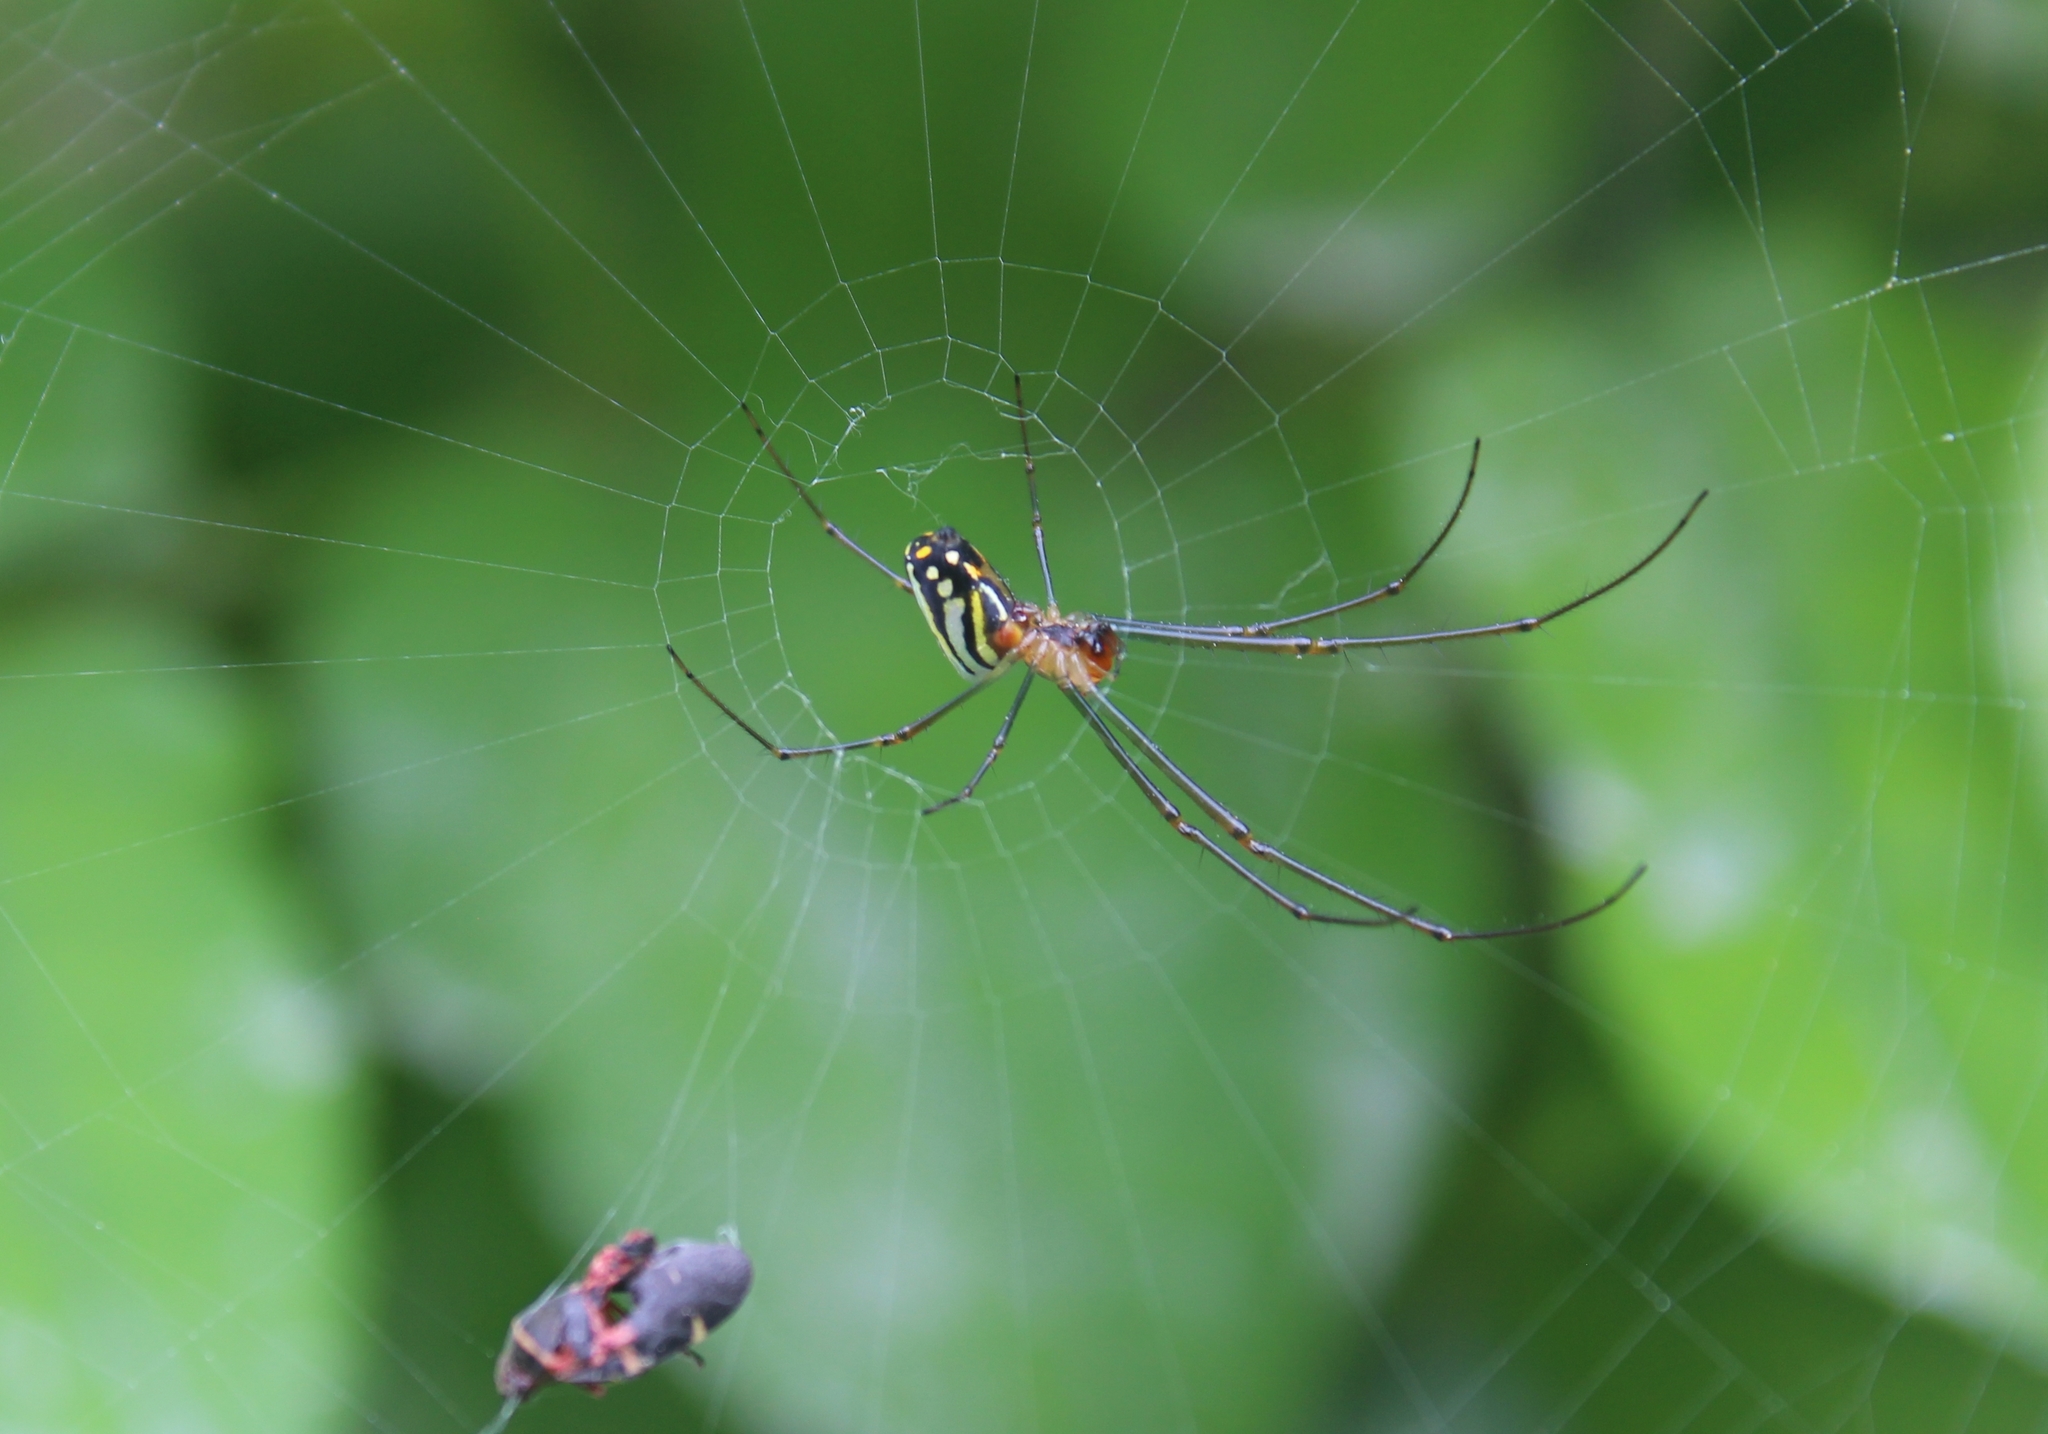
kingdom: Animalia
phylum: Arthropoda
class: Arachnida
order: Araneae
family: Tetragnathidae
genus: Leucauge
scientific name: Leucauge argyra
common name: Longjawed orb weavers
